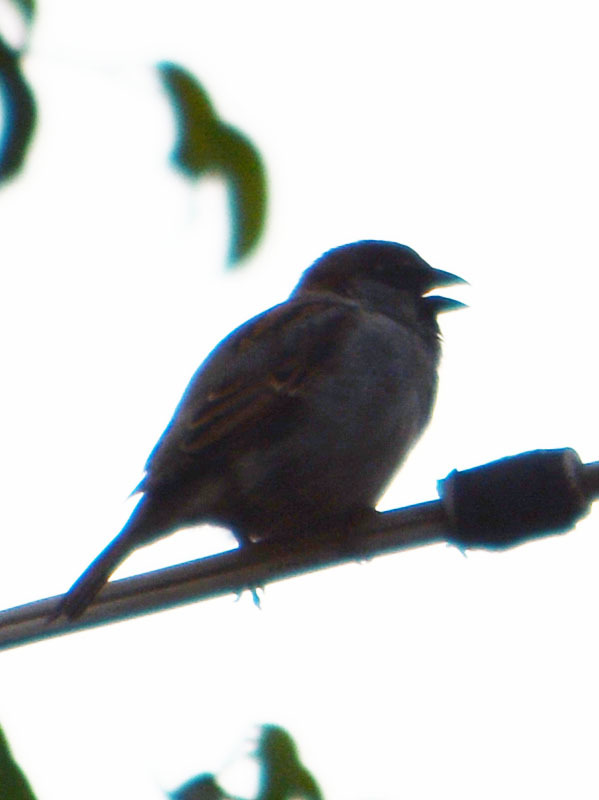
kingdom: Animalia
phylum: Chordata
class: Aves
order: Passeriformes
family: Passeridae
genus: Passer
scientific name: Passer domesticus
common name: House sparrow
